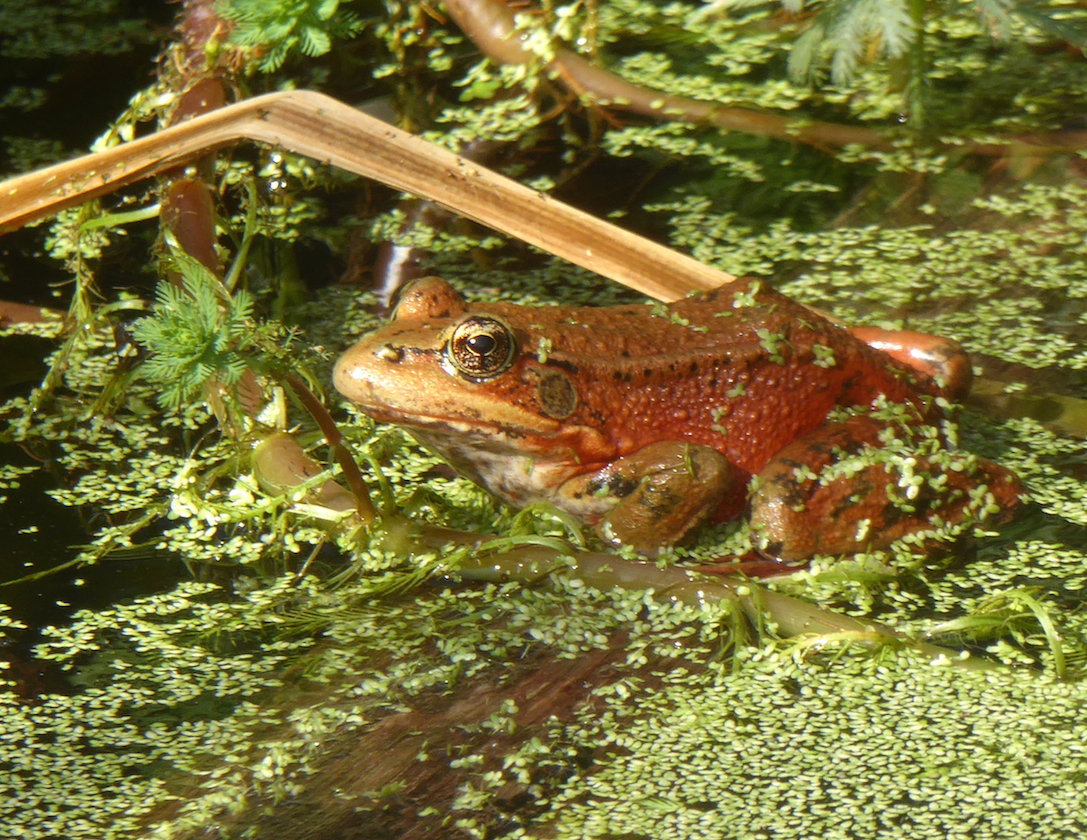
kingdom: Animalia
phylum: Chordata
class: Amphibia
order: Anura
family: Ranidae
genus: Rana
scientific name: Rana draytonii
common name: California red-legged frog
